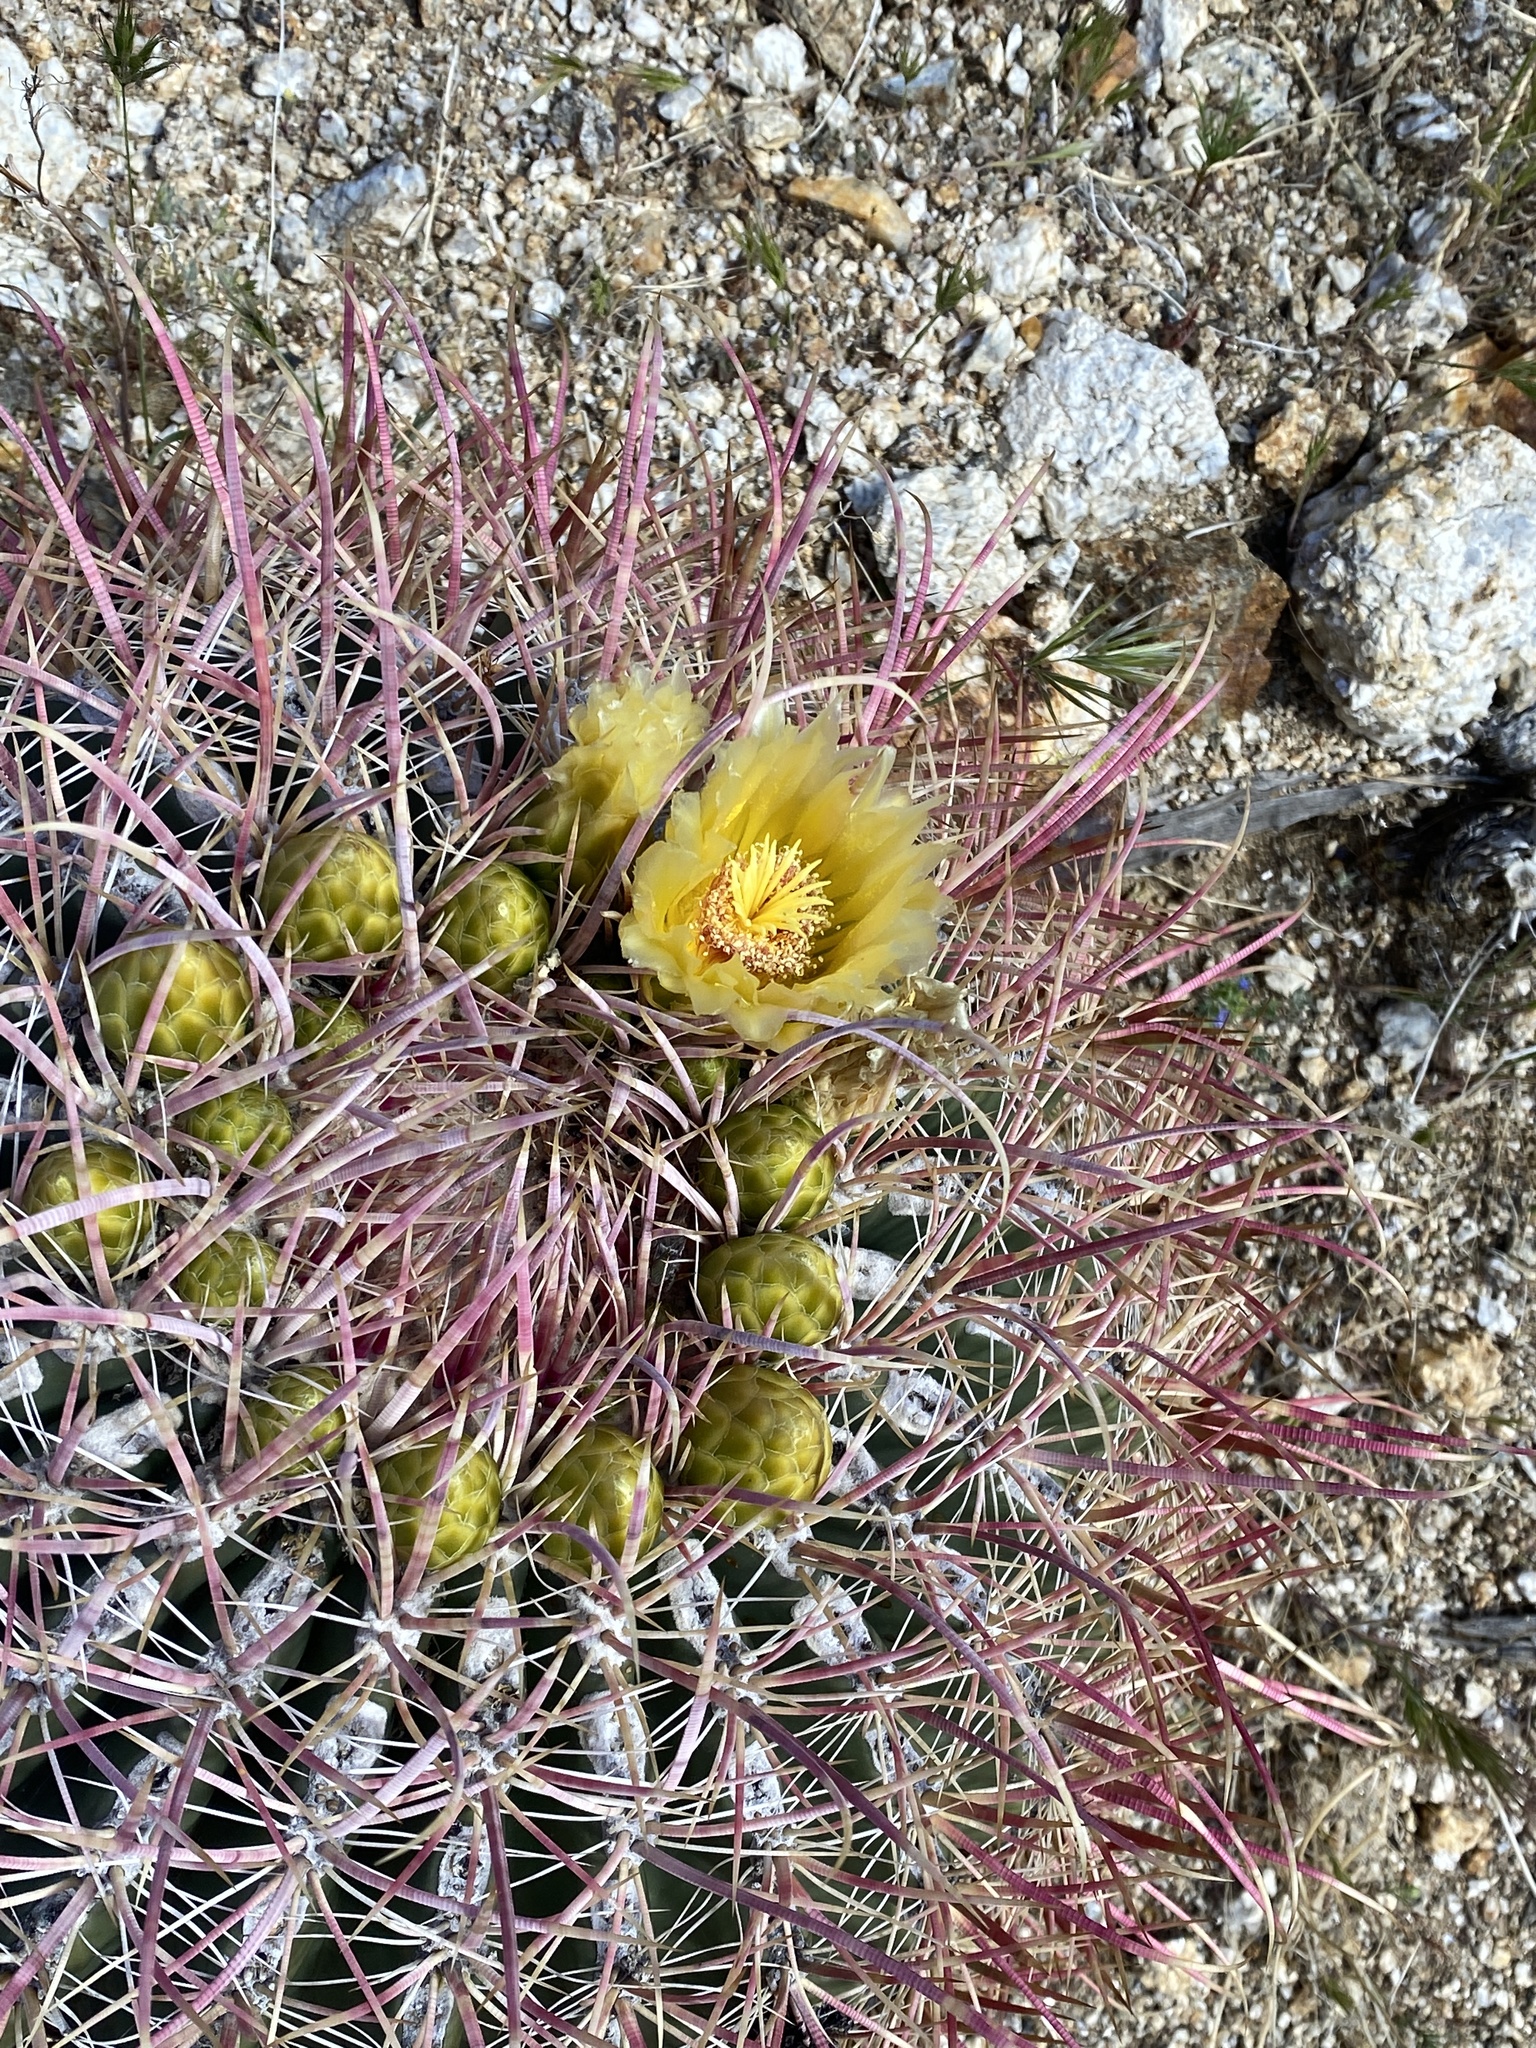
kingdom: Plantae
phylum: Tracheophyta
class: Magnoliopsida
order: Caryophyllales
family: Cactaceae
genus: Ferocactus
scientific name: Ferocactus cylindraceus
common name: California barrel cactus
